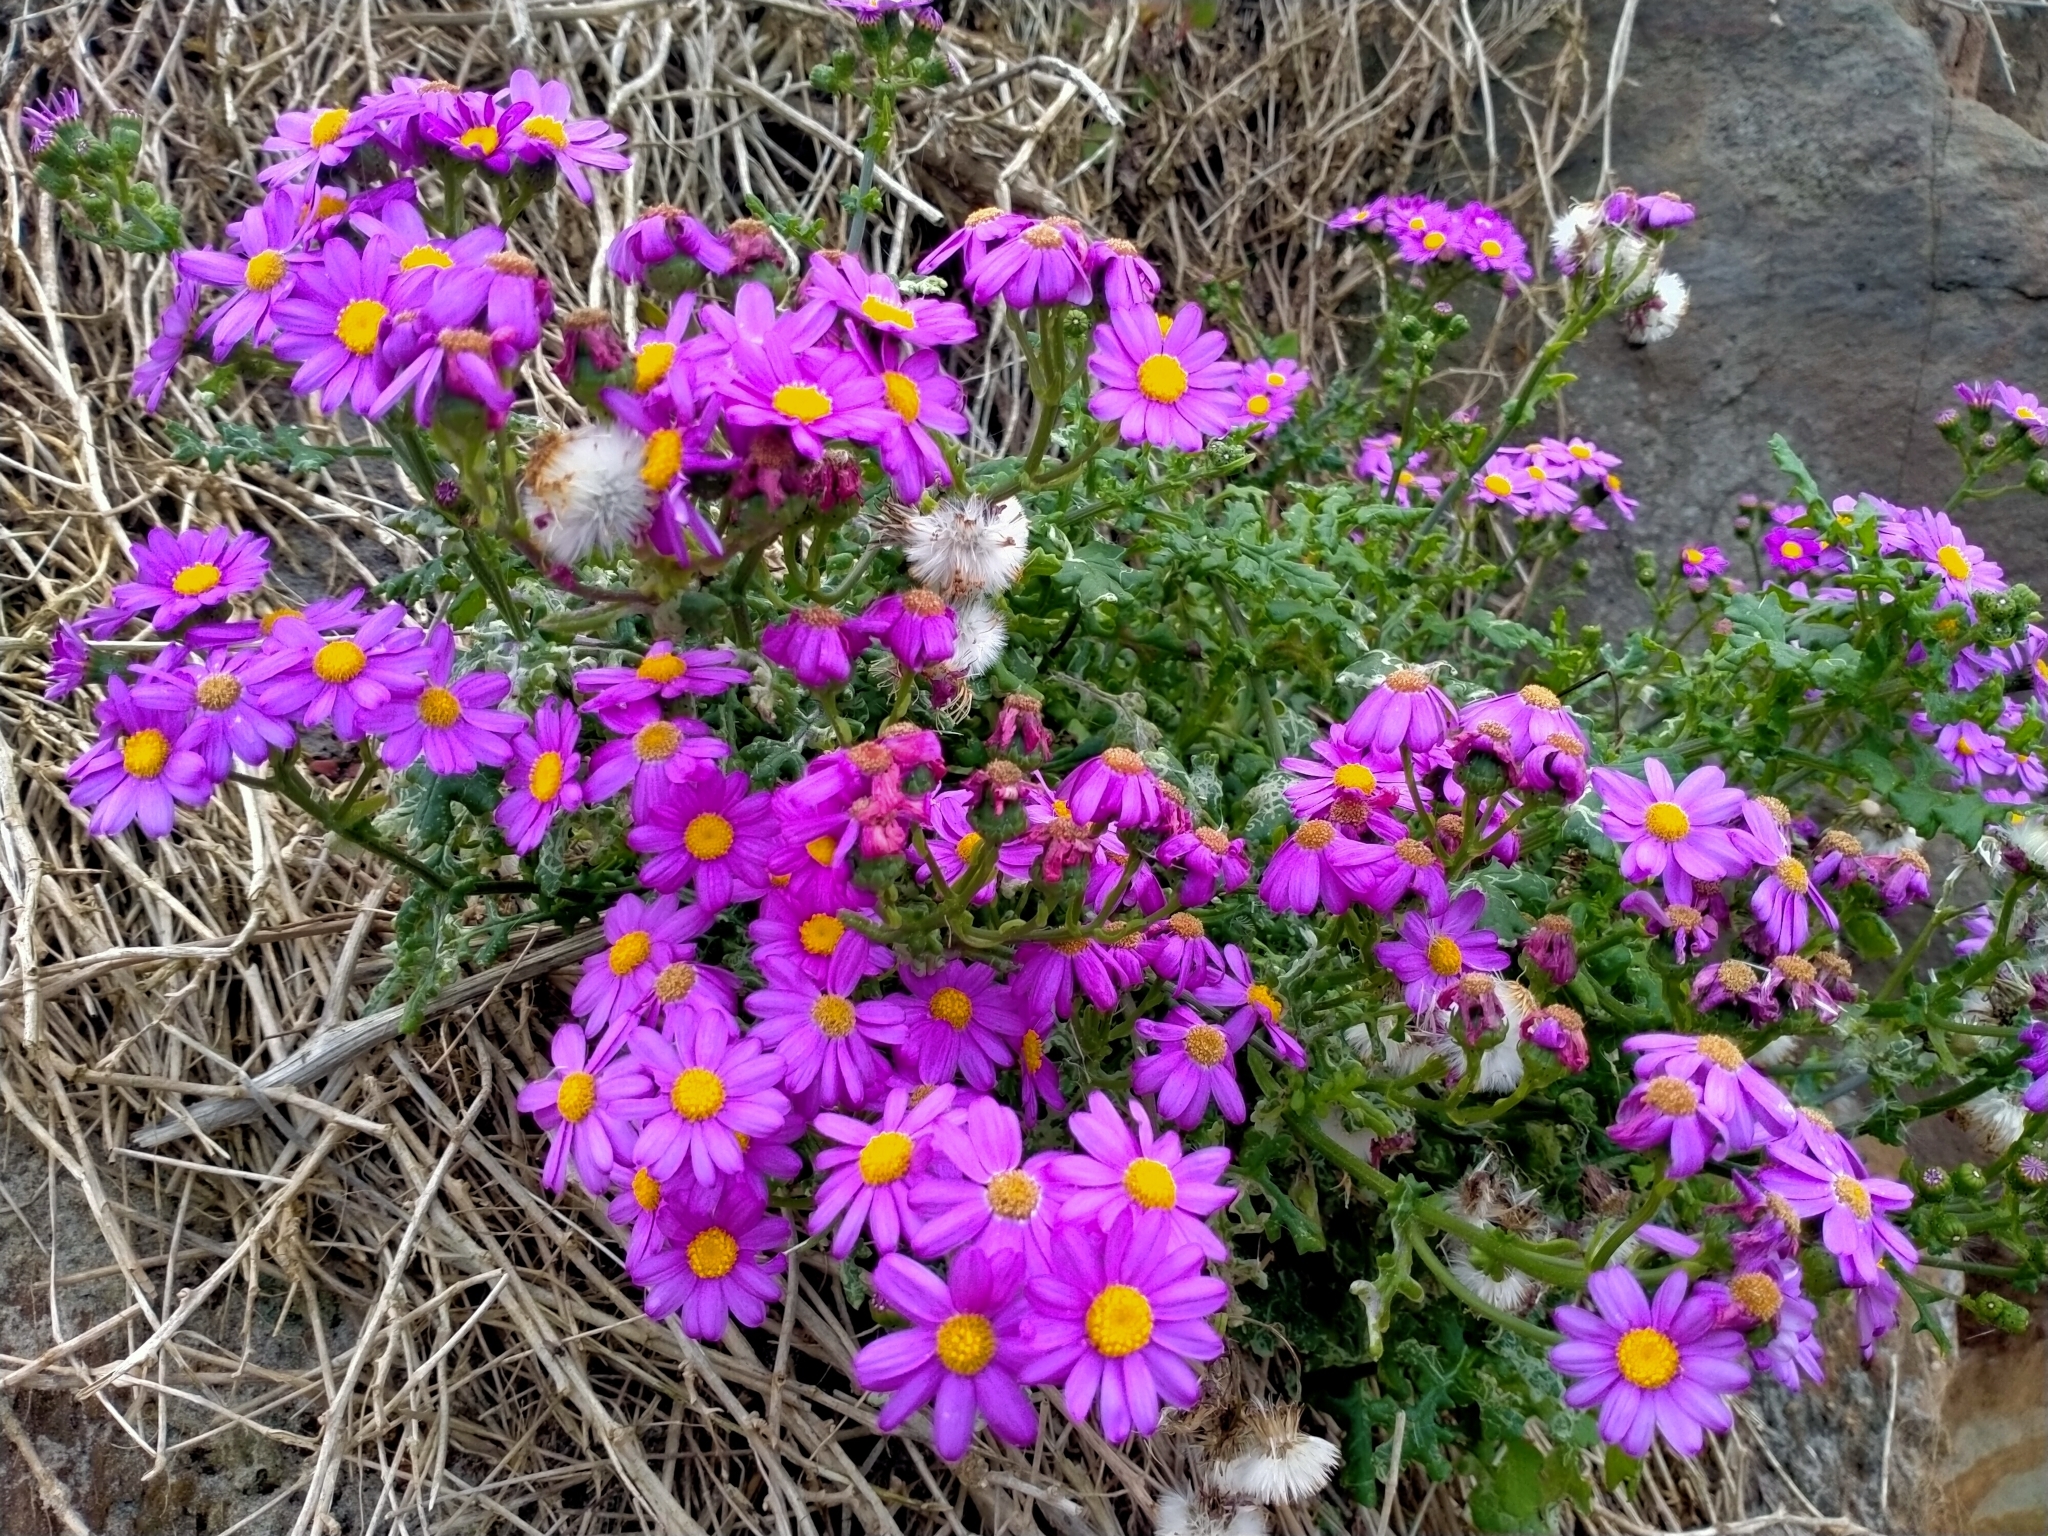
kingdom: Plantae
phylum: Tracheophyta
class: Magnoliopsida
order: Asterales
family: Asteraceae
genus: Senecio
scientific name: Senecio elegans
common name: Purple groundsel
